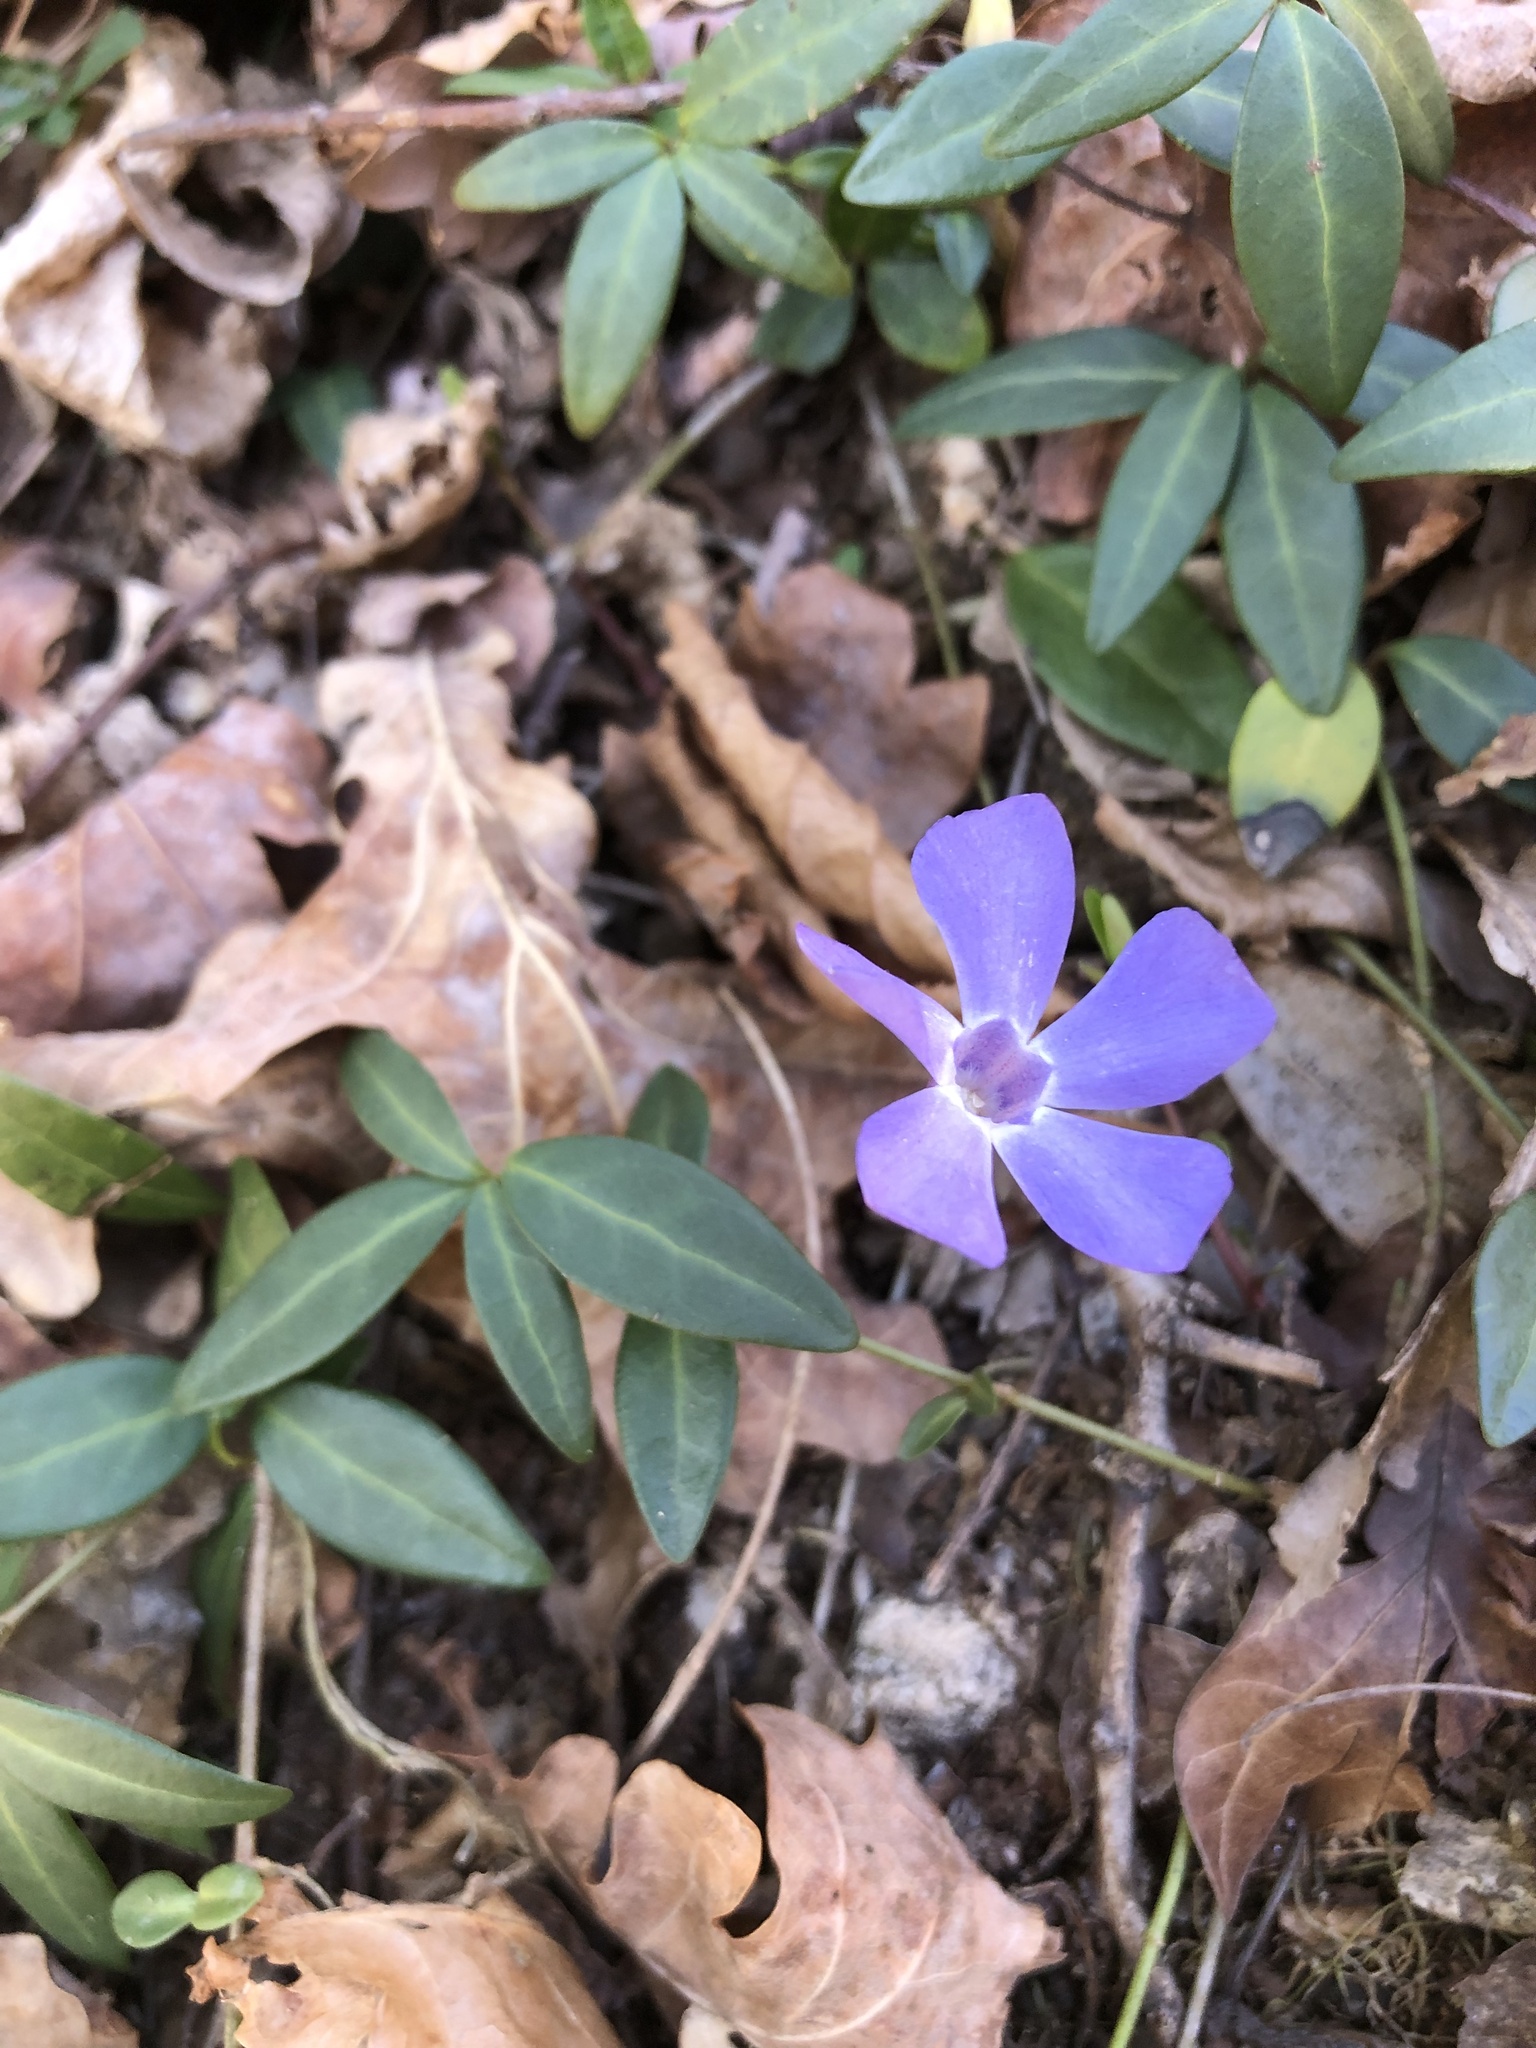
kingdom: Plantae
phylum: Tracheophyta
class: Magnoliopsida
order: Gentianales
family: Apocynaceae
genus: Vinca
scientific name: Vinca minor
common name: Lesser periwinkle
